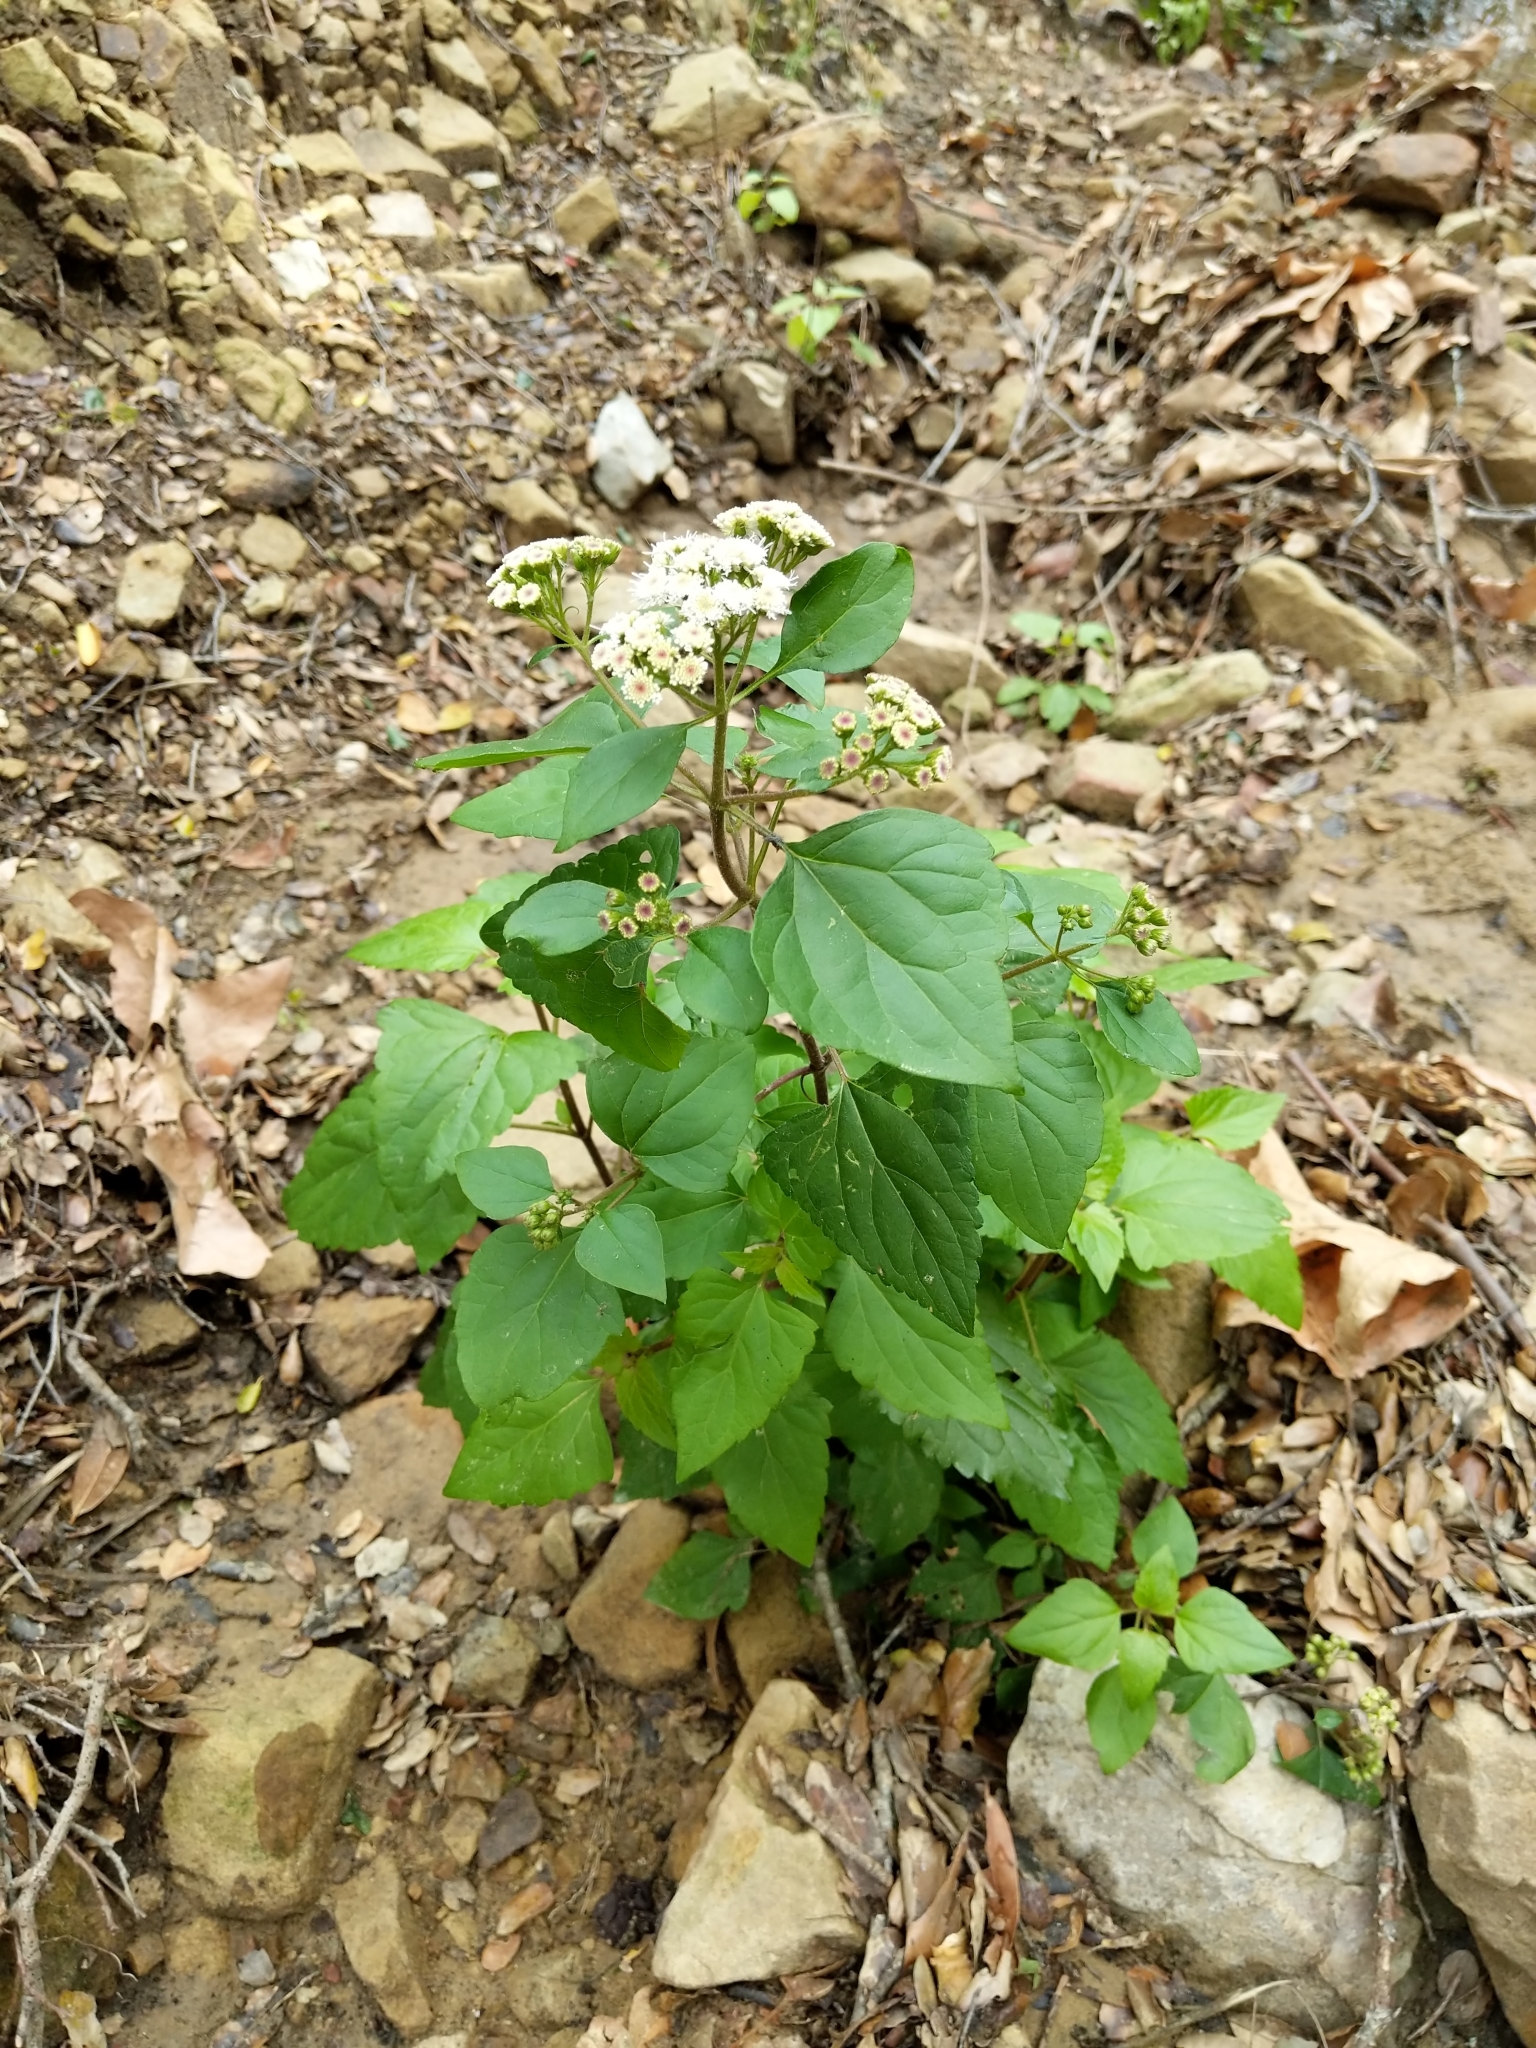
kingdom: Plantae
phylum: Tracheophyta
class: Magnoliopsida
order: Asterales
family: Asteraceae
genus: Ageratina
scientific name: Ageratina adenophora
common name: Sticky snakeroot
